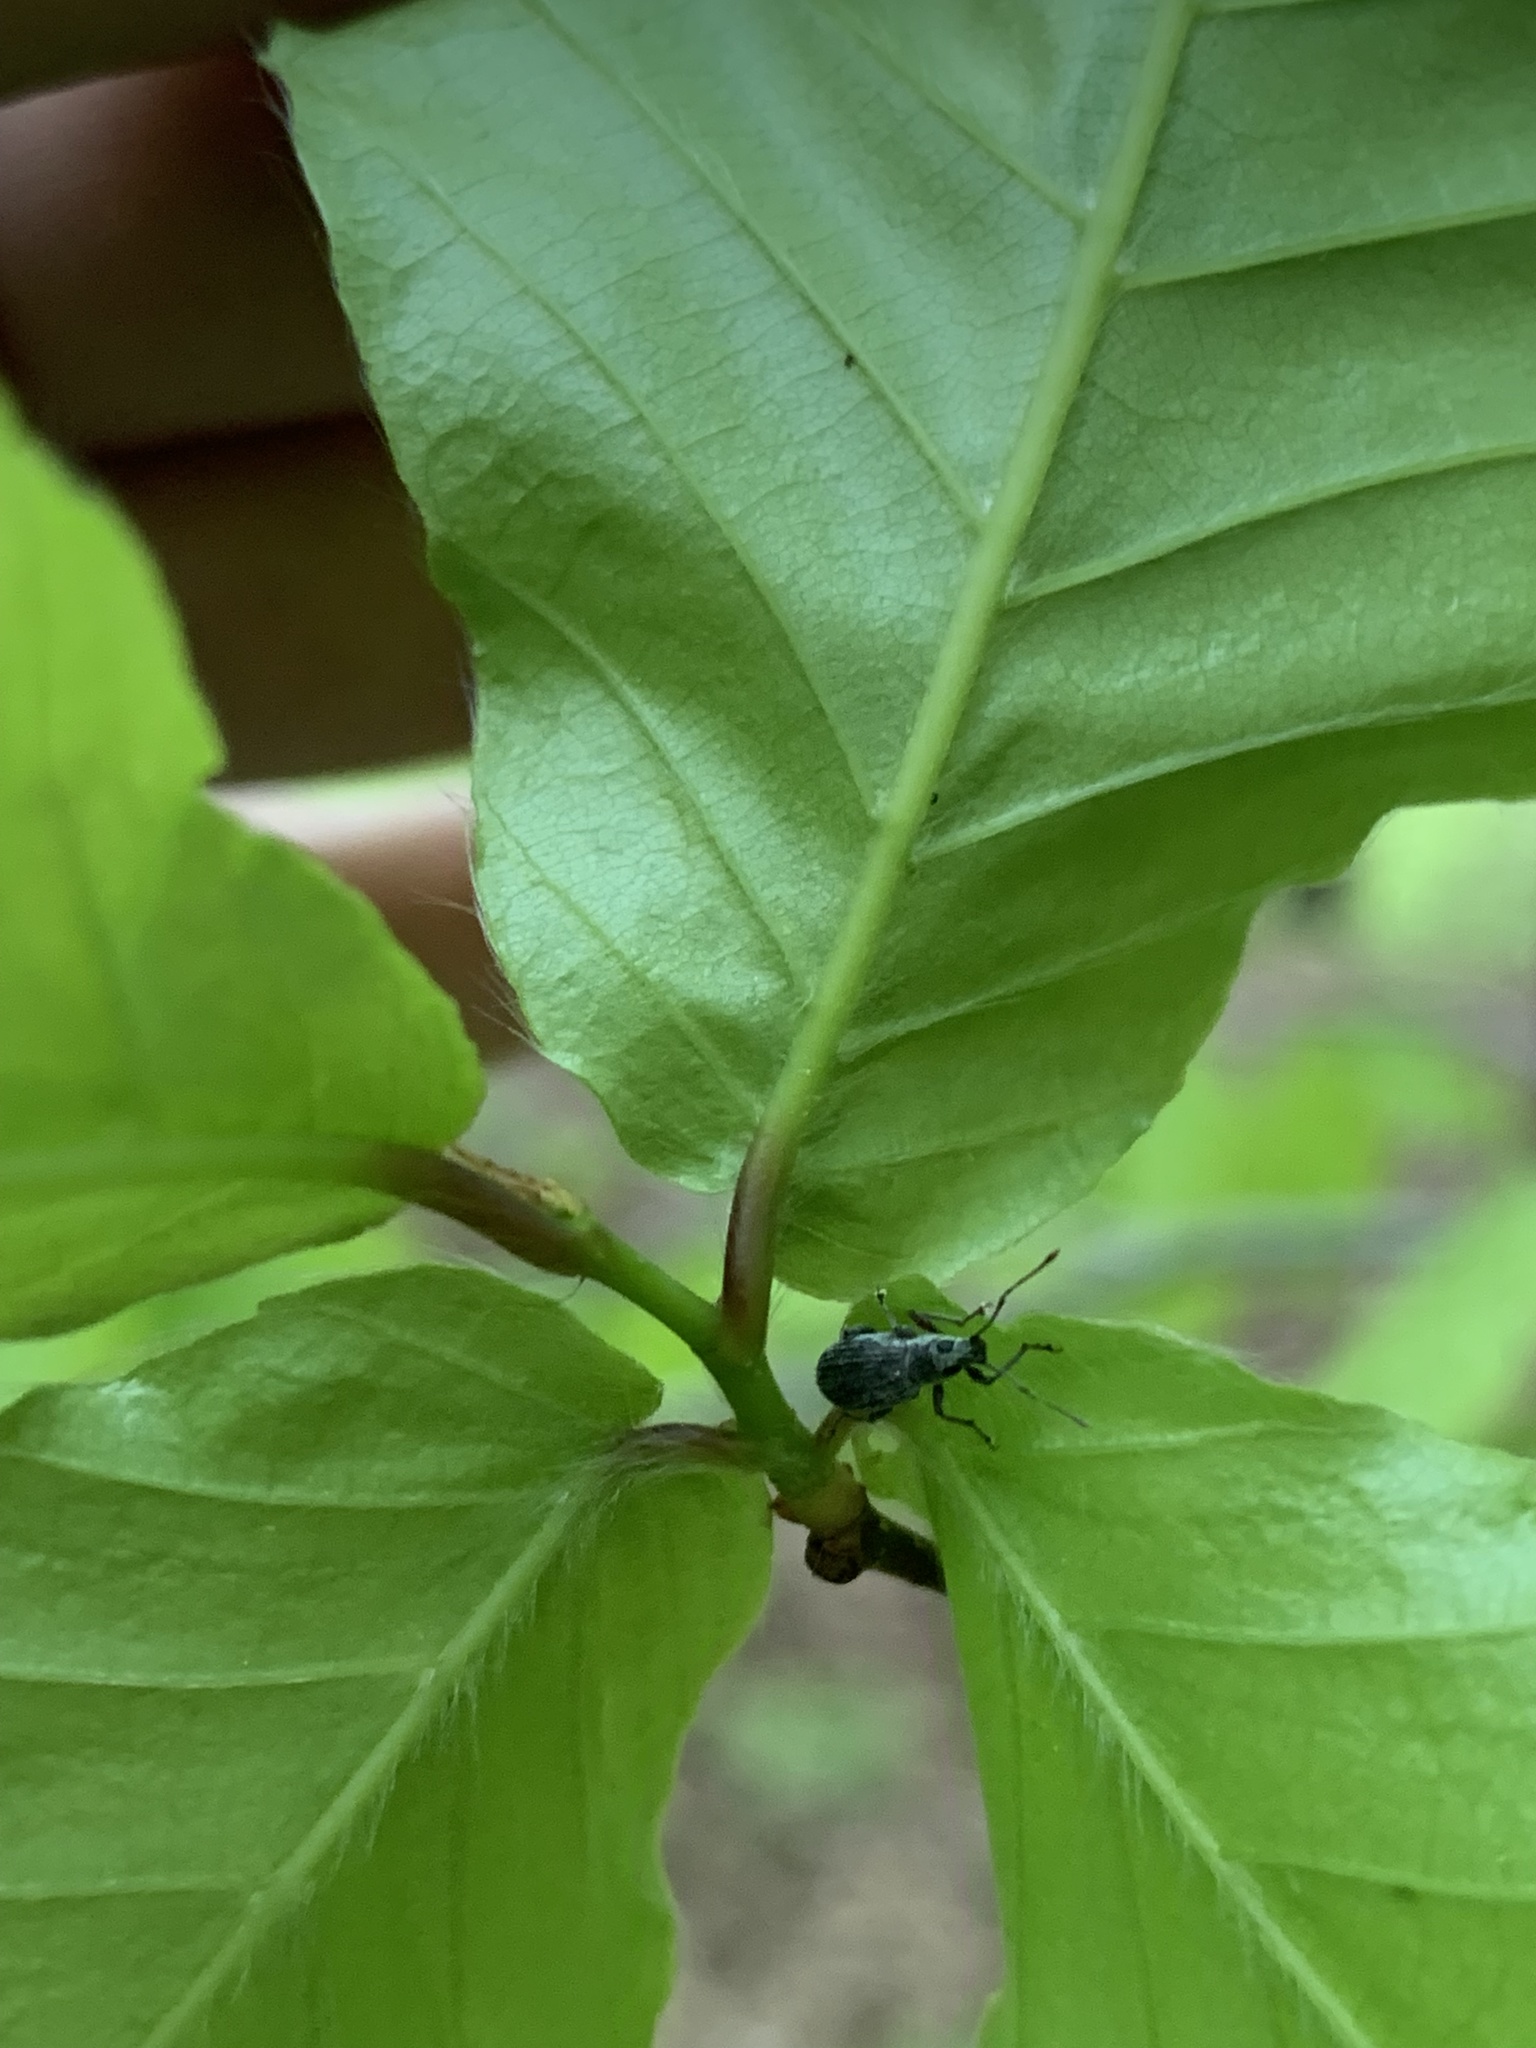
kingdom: Animalia
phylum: Arthropoda
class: Insecta
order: Coleoptera
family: Curculionidae
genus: Cyrtepistomus
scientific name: Cyrtepistomus castaneus
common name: Weevil
